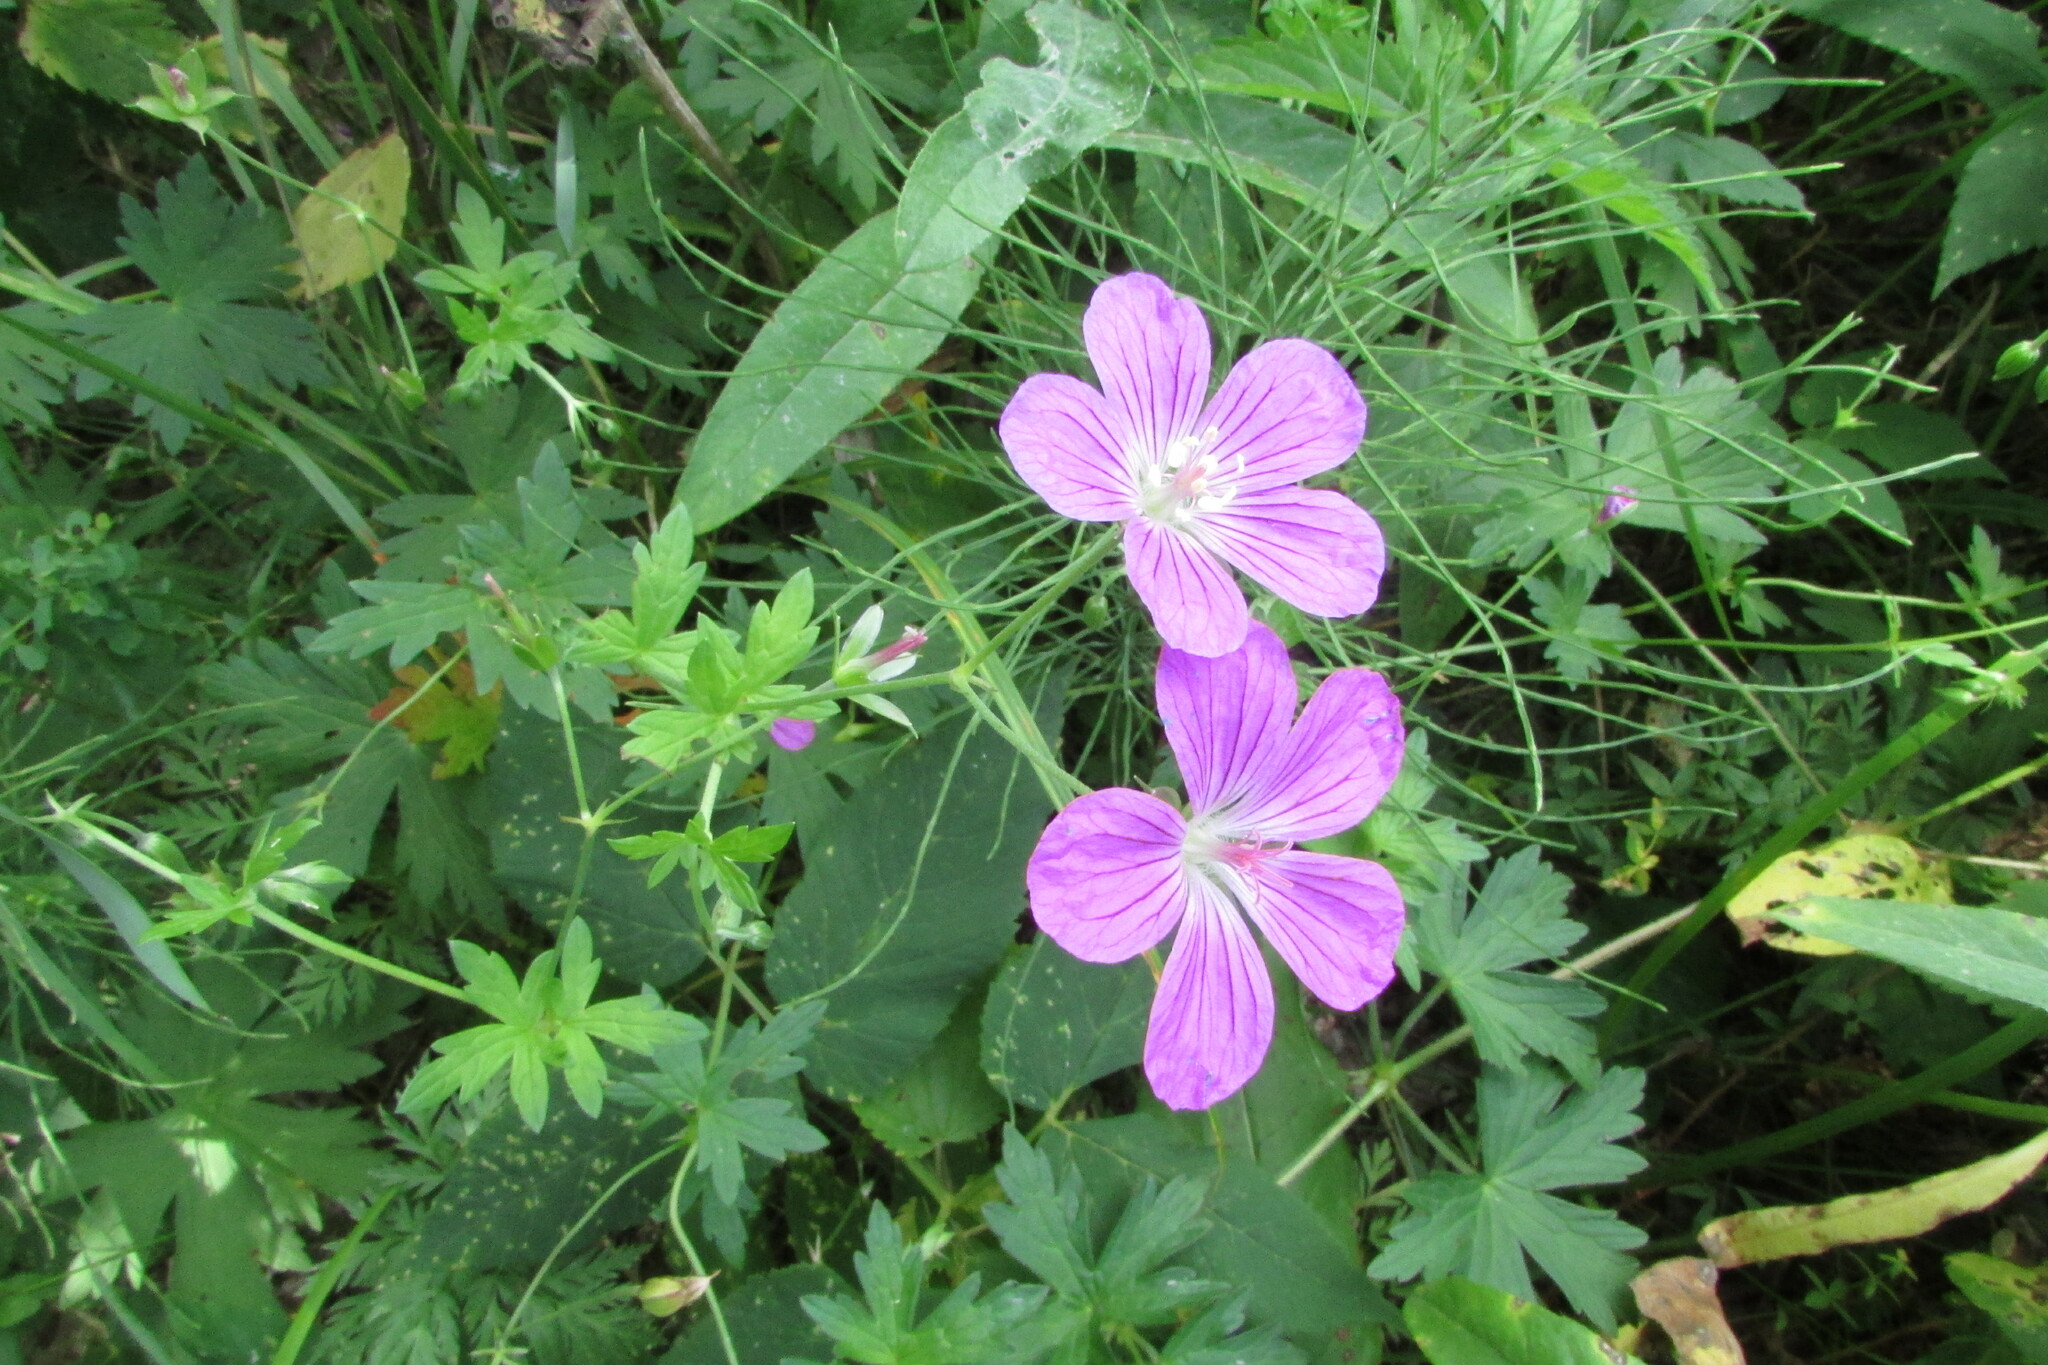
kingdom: Plantae
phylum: Tracheophyta
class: Magnoliopsida
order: Geraniales
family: Geraniaceae
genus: Geranium
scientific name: Geranium palustre
